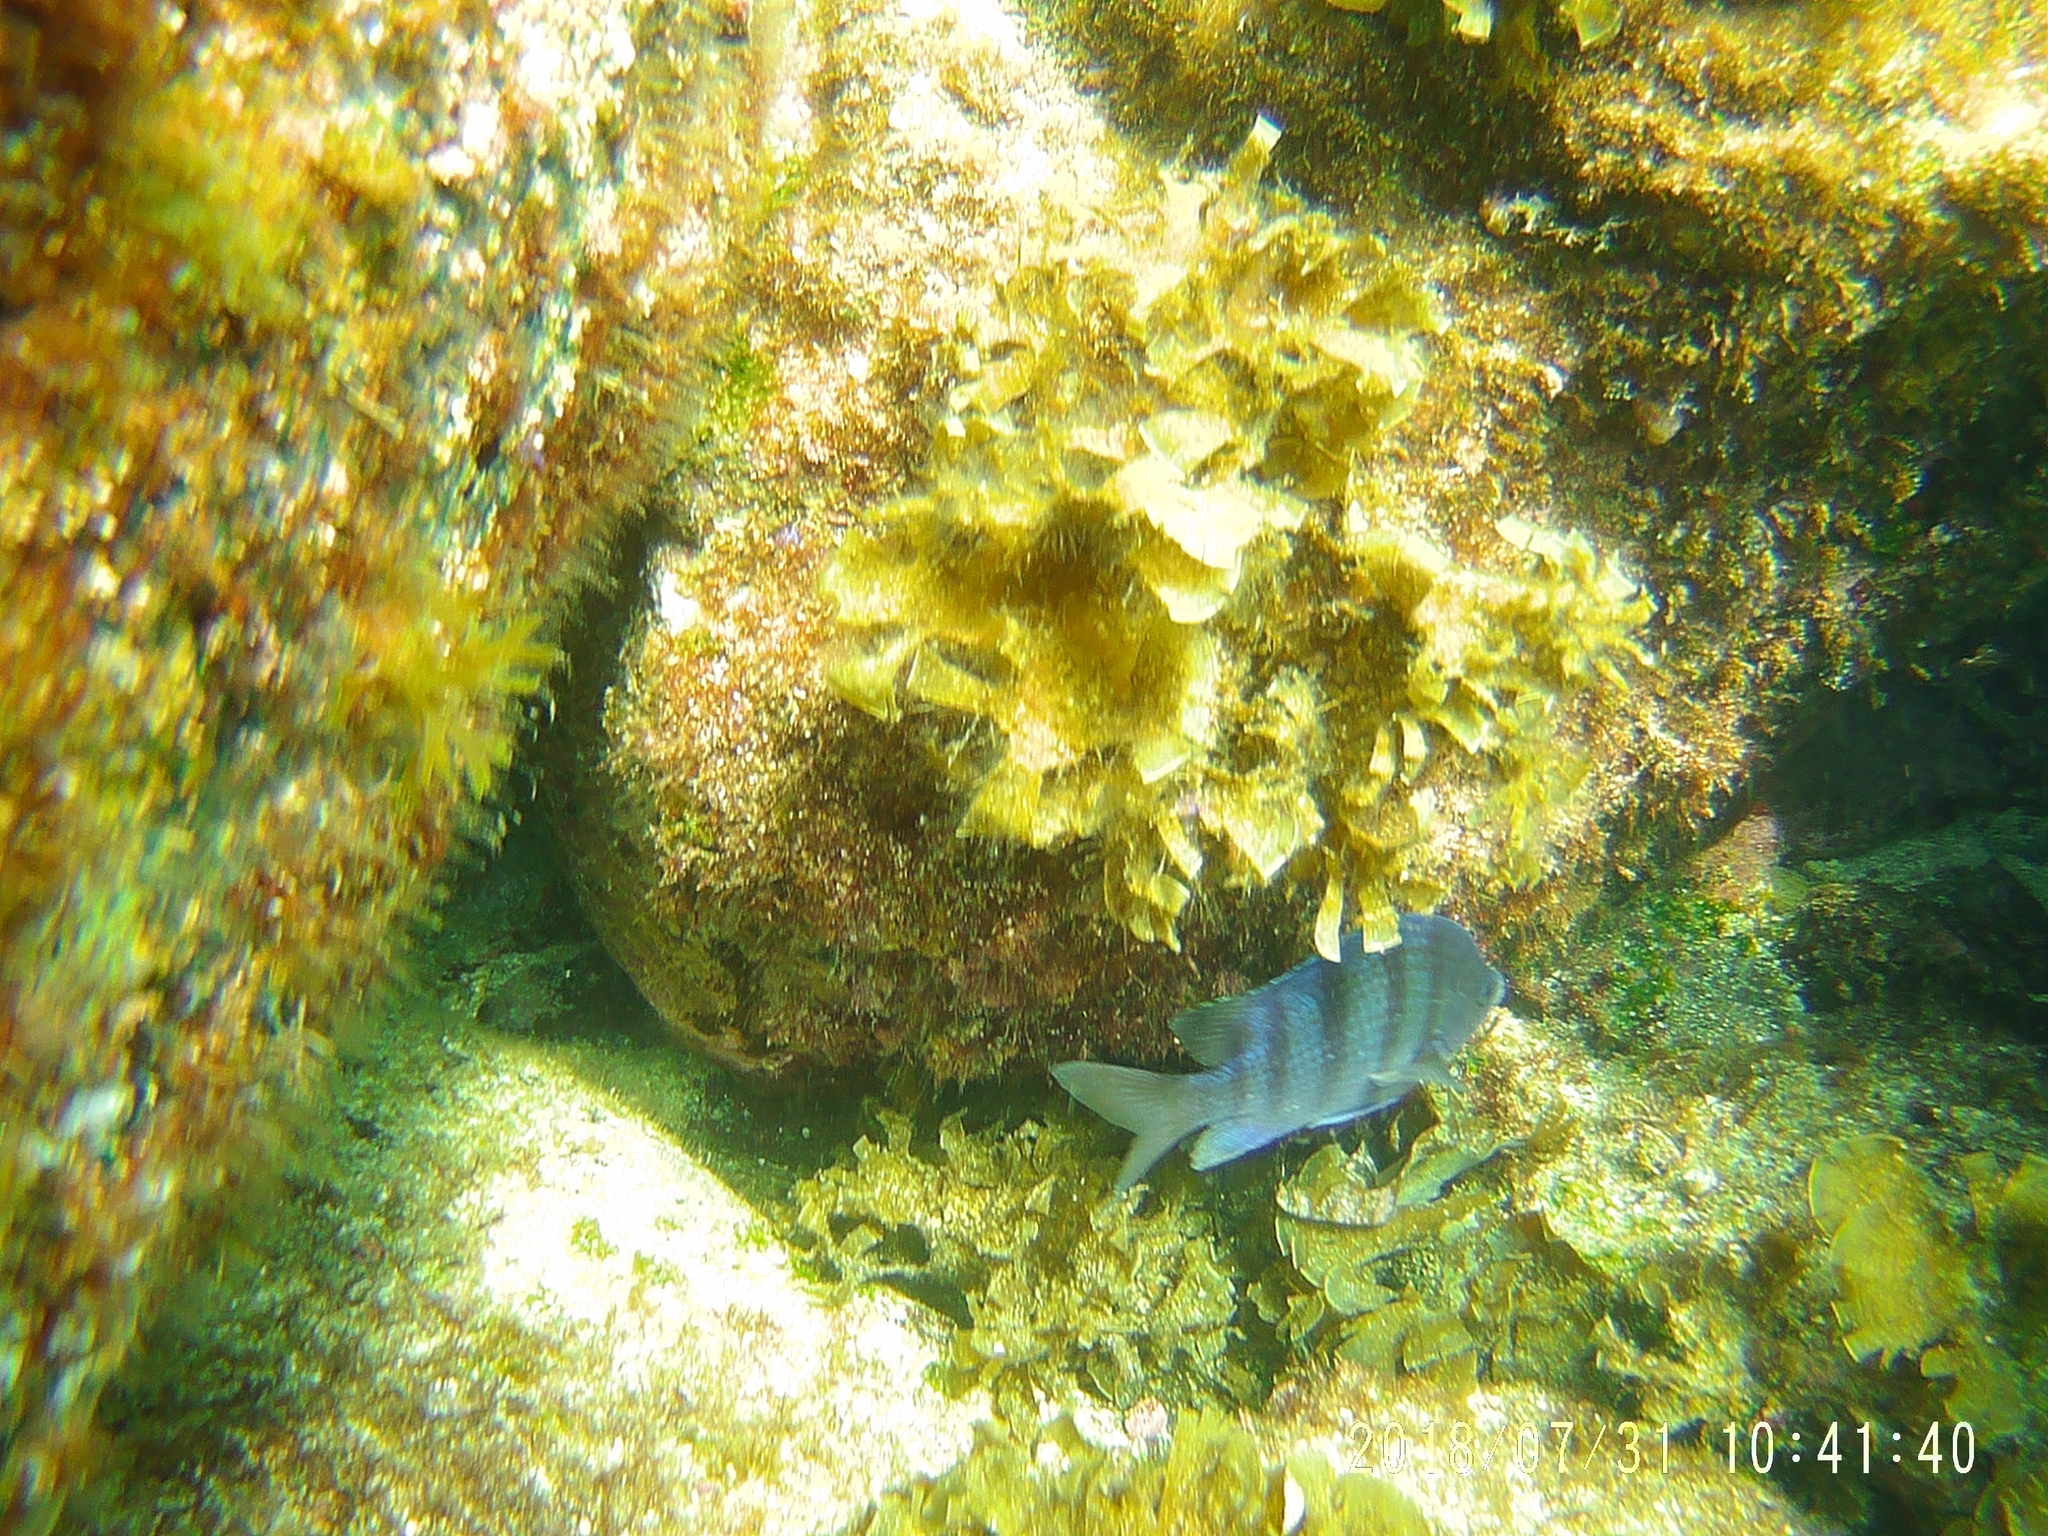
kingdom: Animalia
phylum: Chordata
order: Perciformes
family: Pomacentridae
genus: Abudefduf
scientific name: Abudefduf troschelii
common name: Panamic sergeant major
